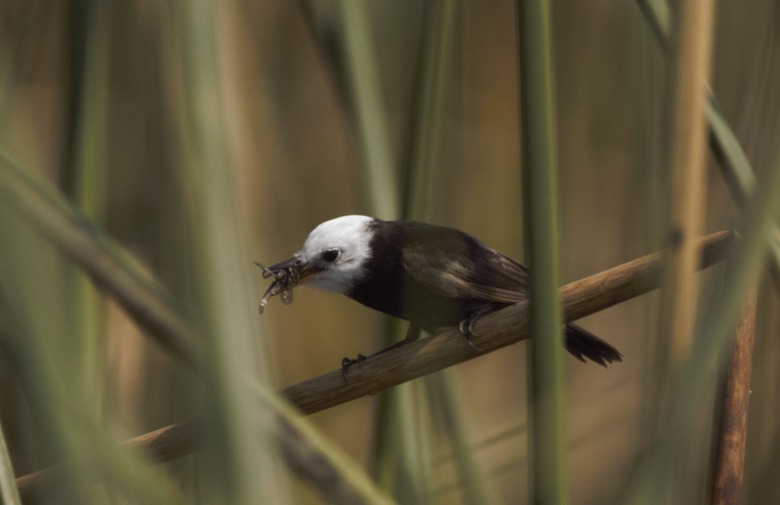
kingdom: Animalia
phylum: Chordata
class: Aves
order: Passeriformes
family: Tyrannidae
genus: Arundinicola
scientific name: Arundinicola leucocephala
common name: White-headed marsh tyrant
